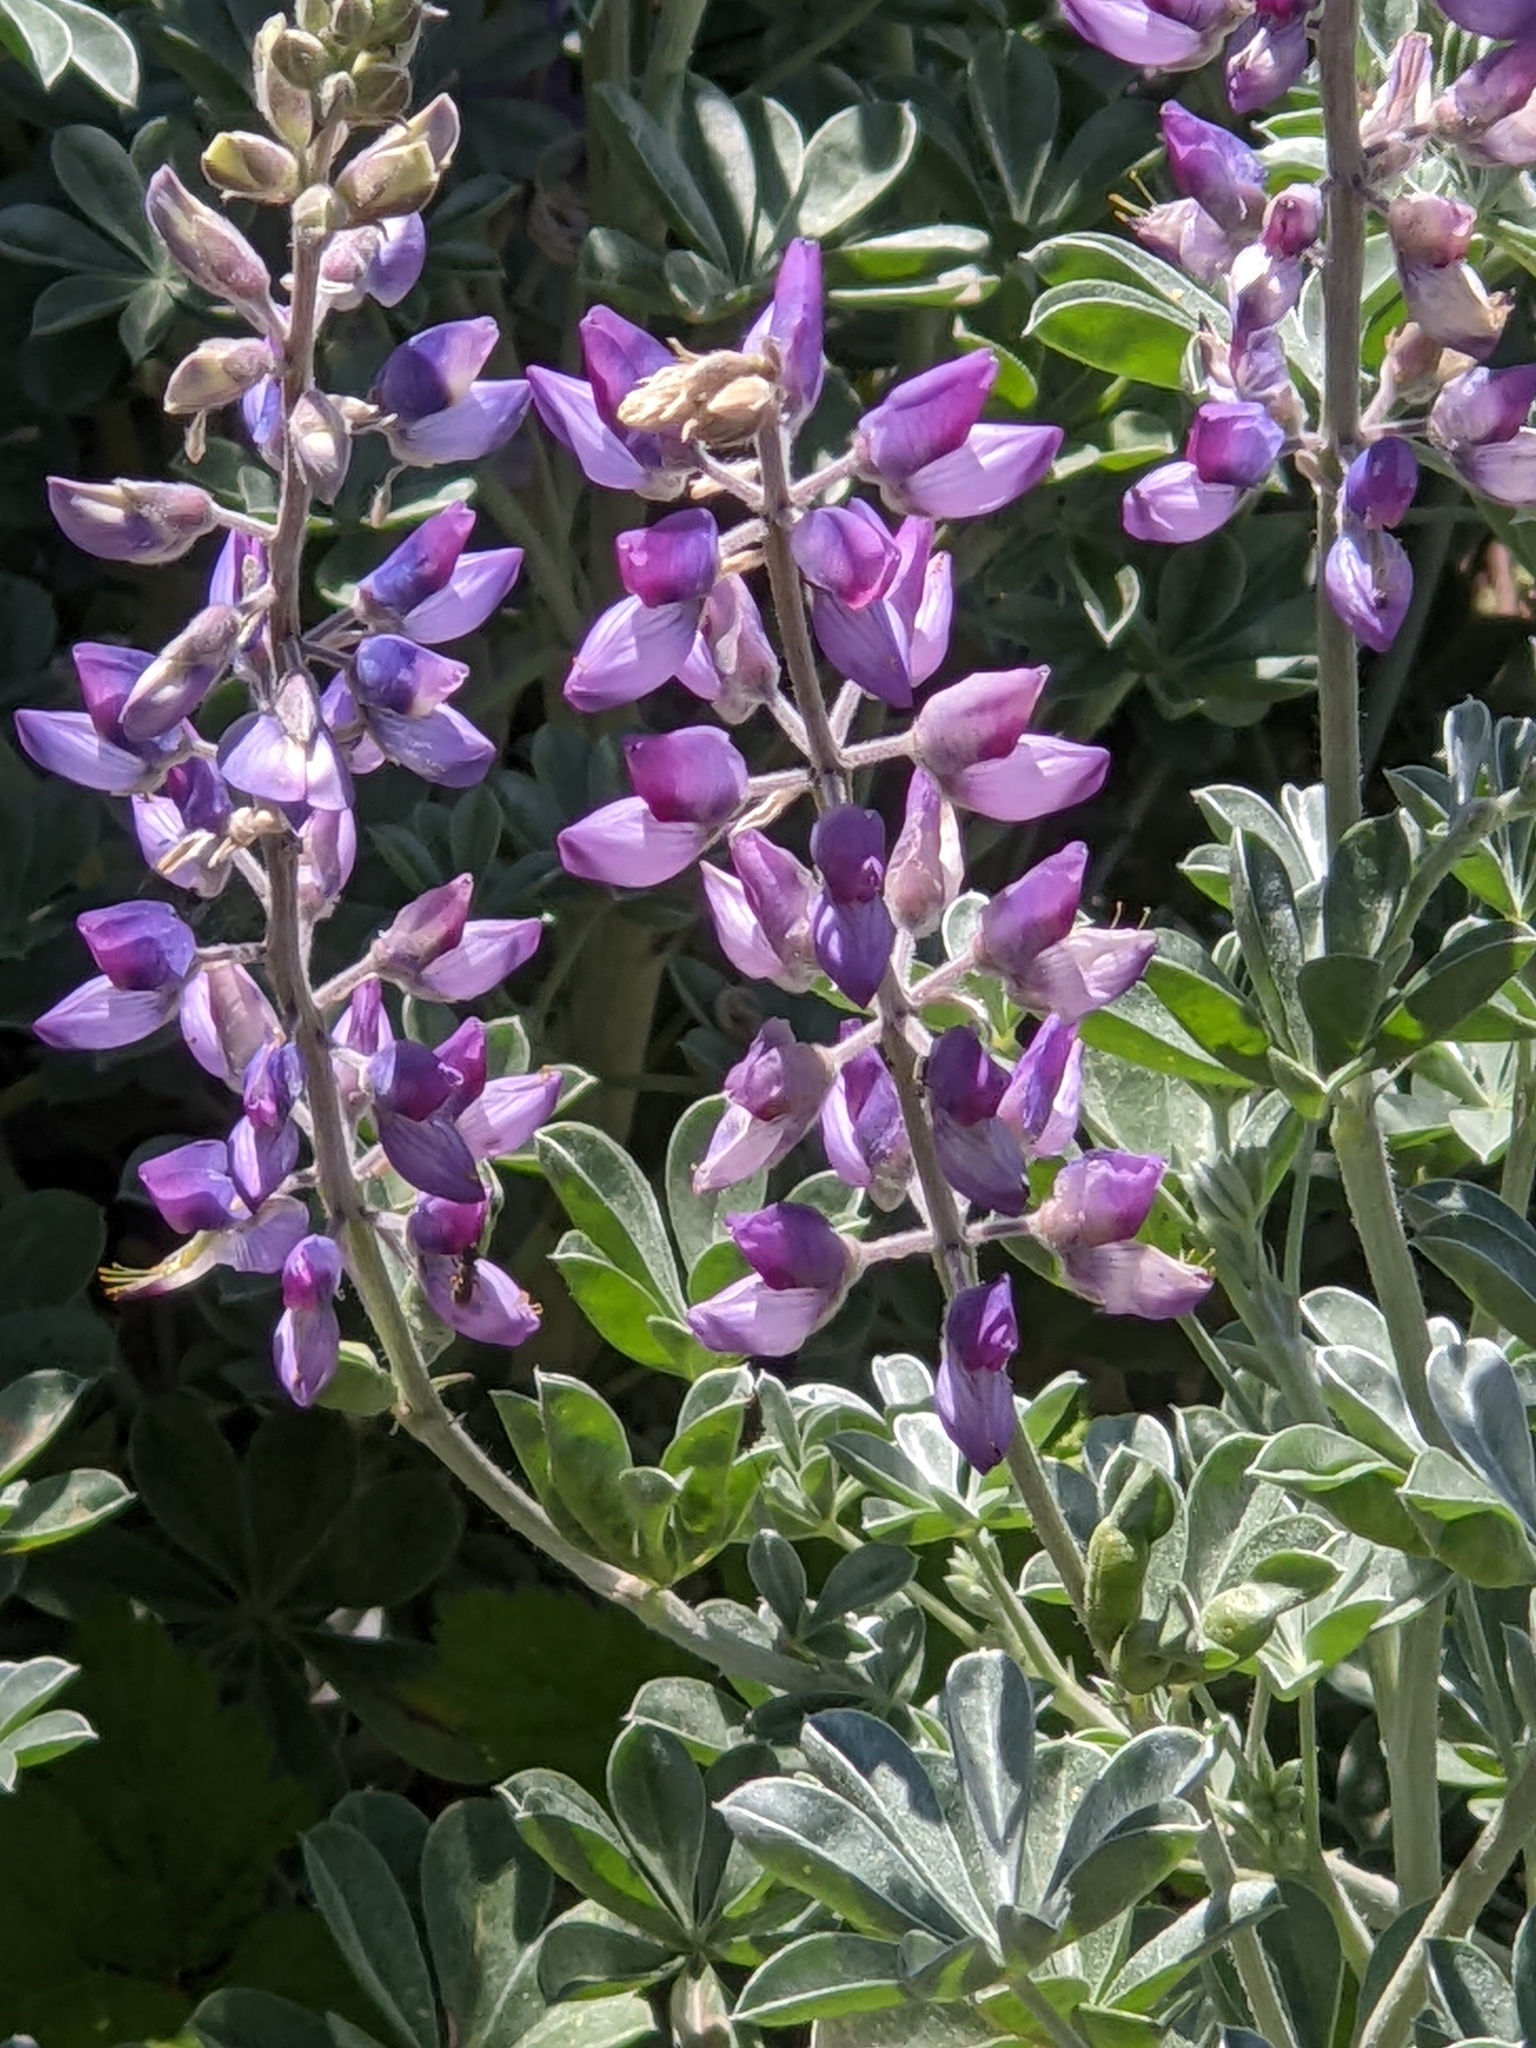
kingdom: Plantae
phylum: Tracheophyta
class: Magnoliopsida
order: Fabales
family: Fabaceae
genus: Lupinus
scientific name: Lupinus albifrons
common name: Foothill lupine
